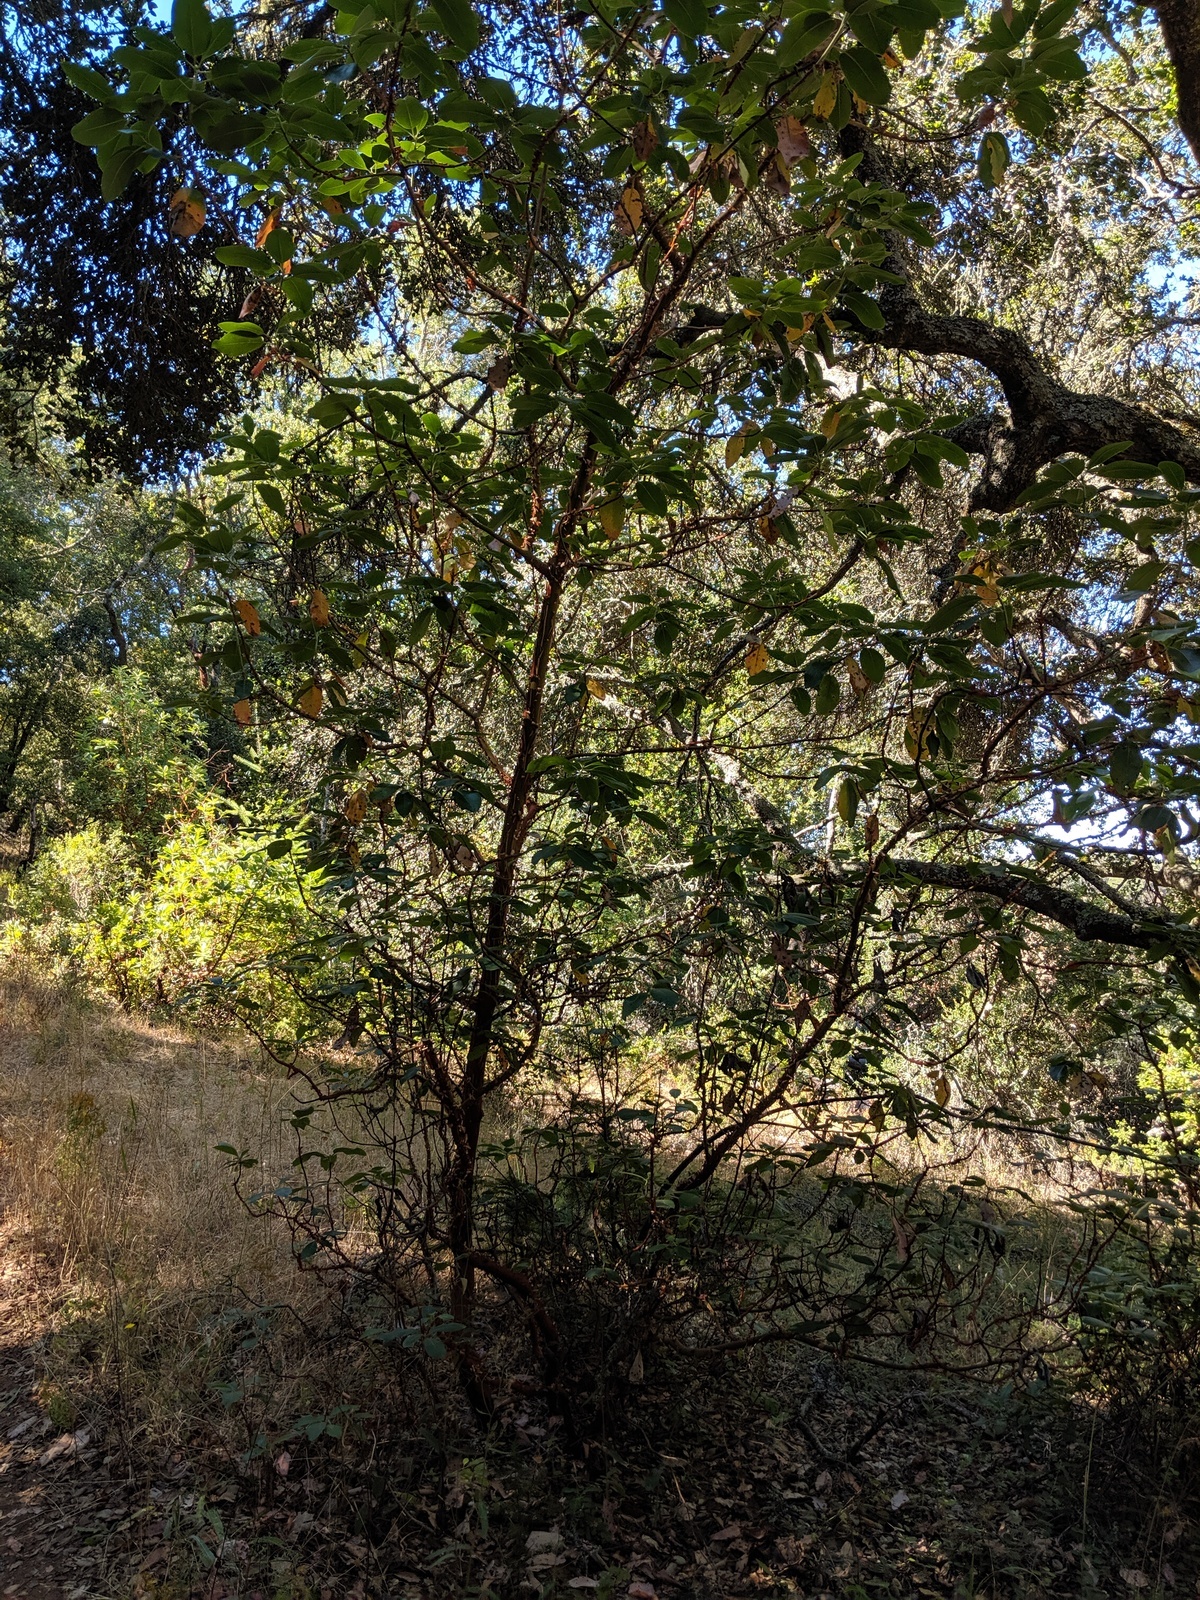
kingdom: Plantae
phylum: Tracheophyta
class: Magnoliopsida
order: Ericales
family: Ericaceae
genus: Arbutus
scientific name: Arbutus menziesii
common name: Pacific madrone
